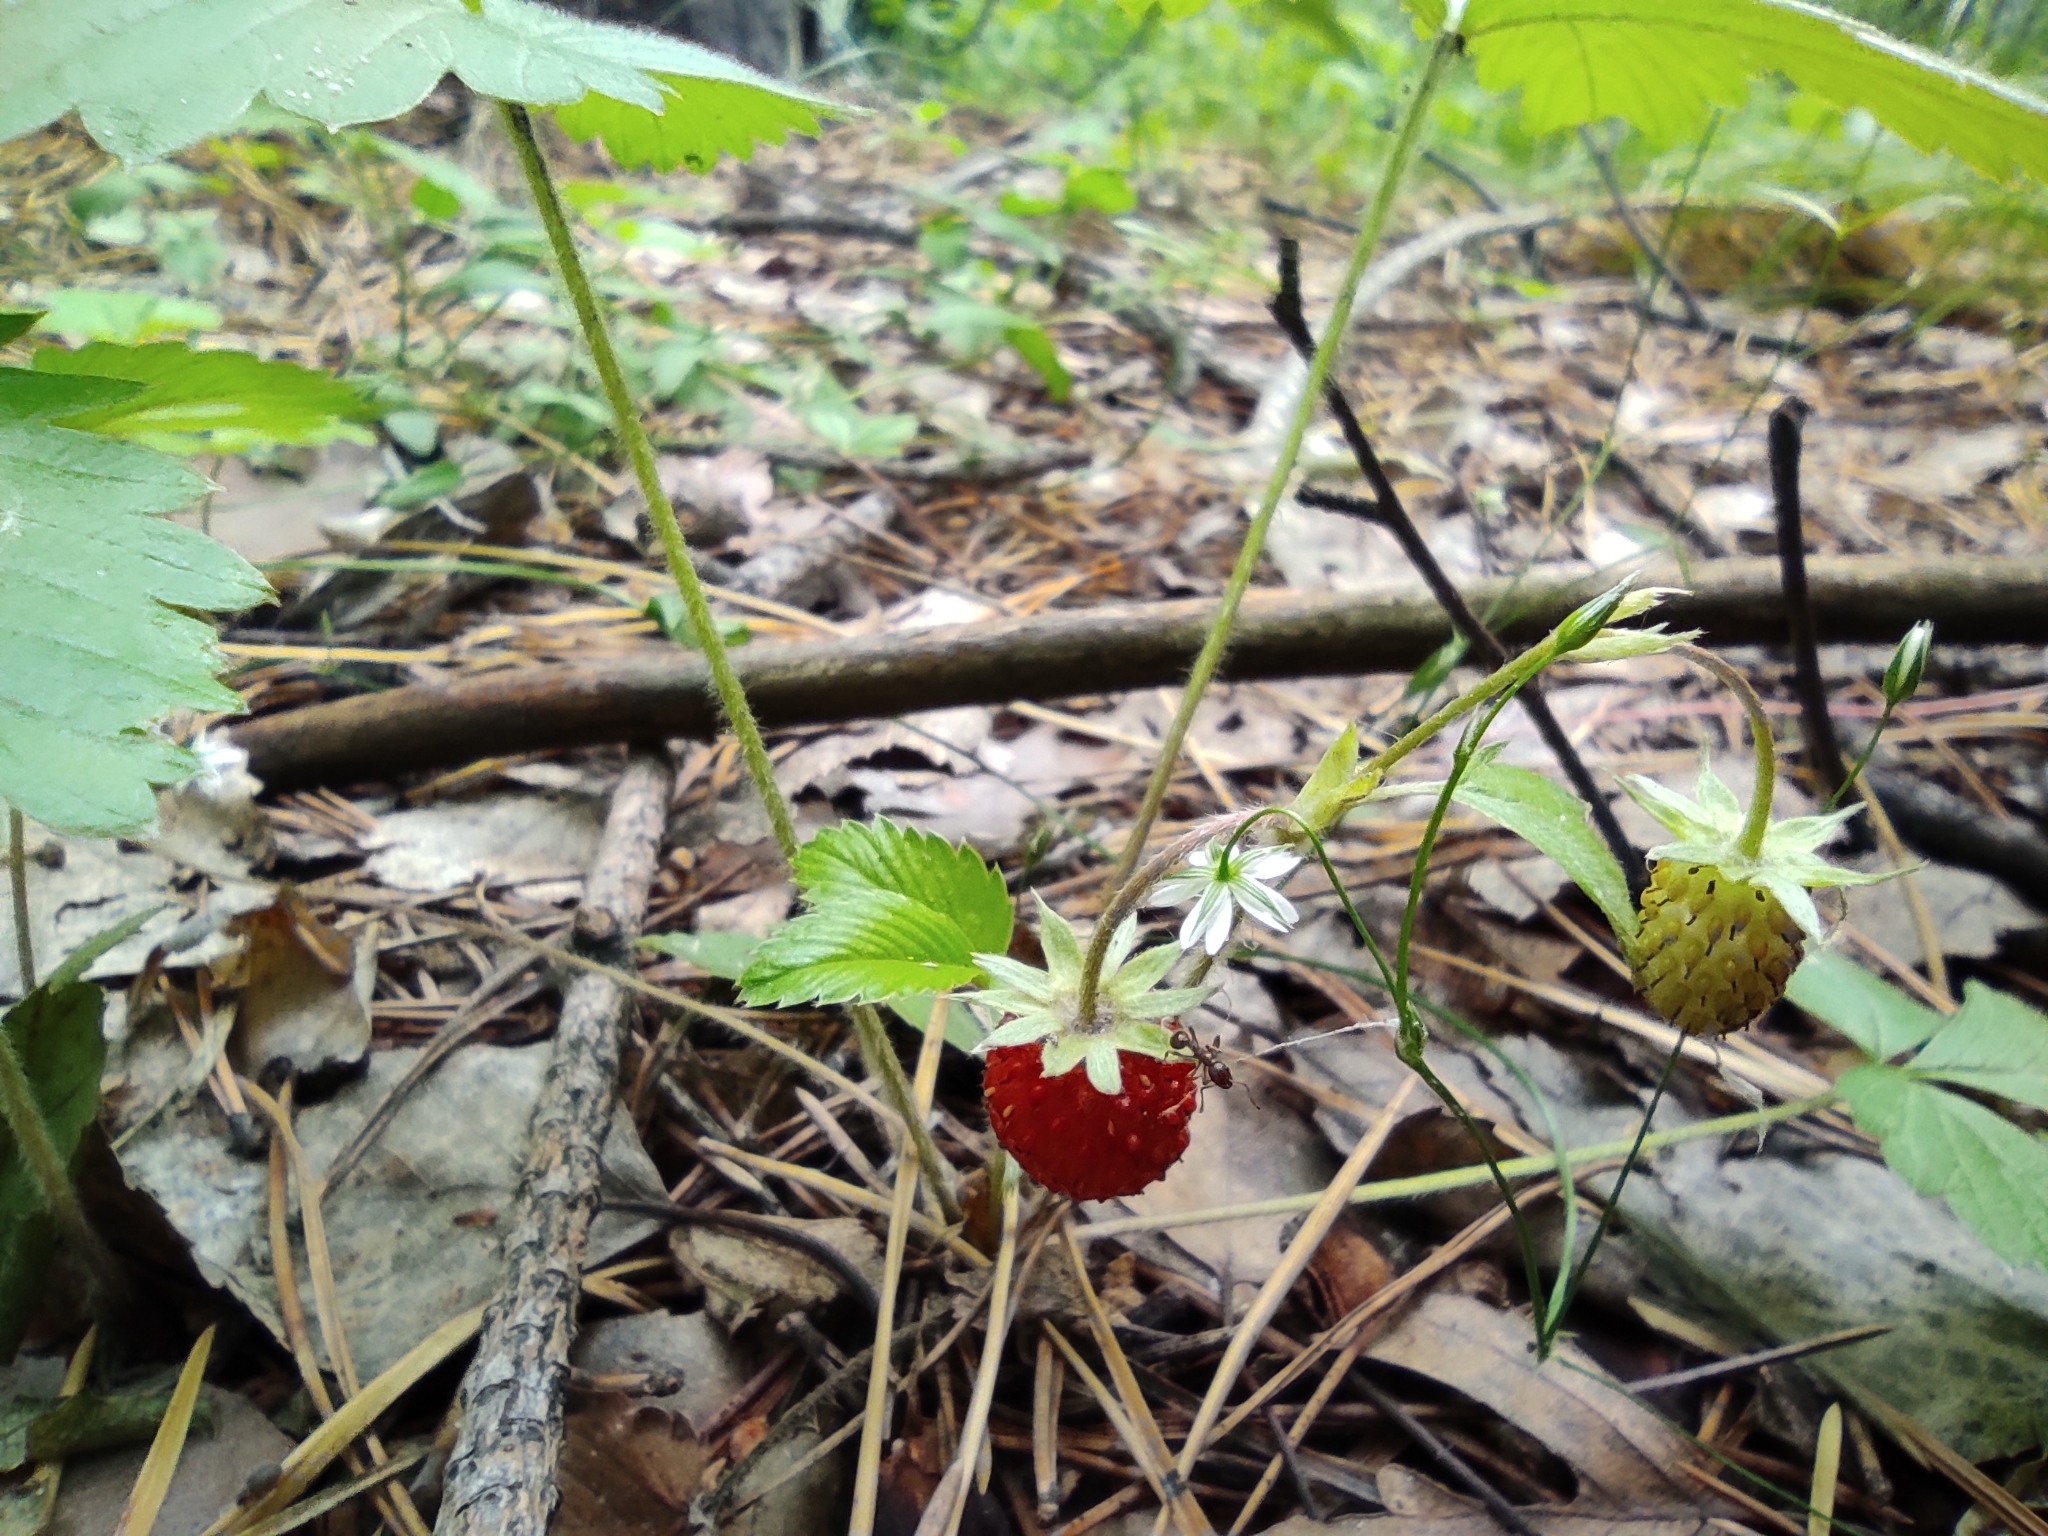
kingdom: Plantae
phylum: Tracheophyta
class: Magnoliopsida
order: Rosales
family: Rosaceae
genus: Fragaria
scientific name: Fragaria vesca
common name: Wild strawberry
